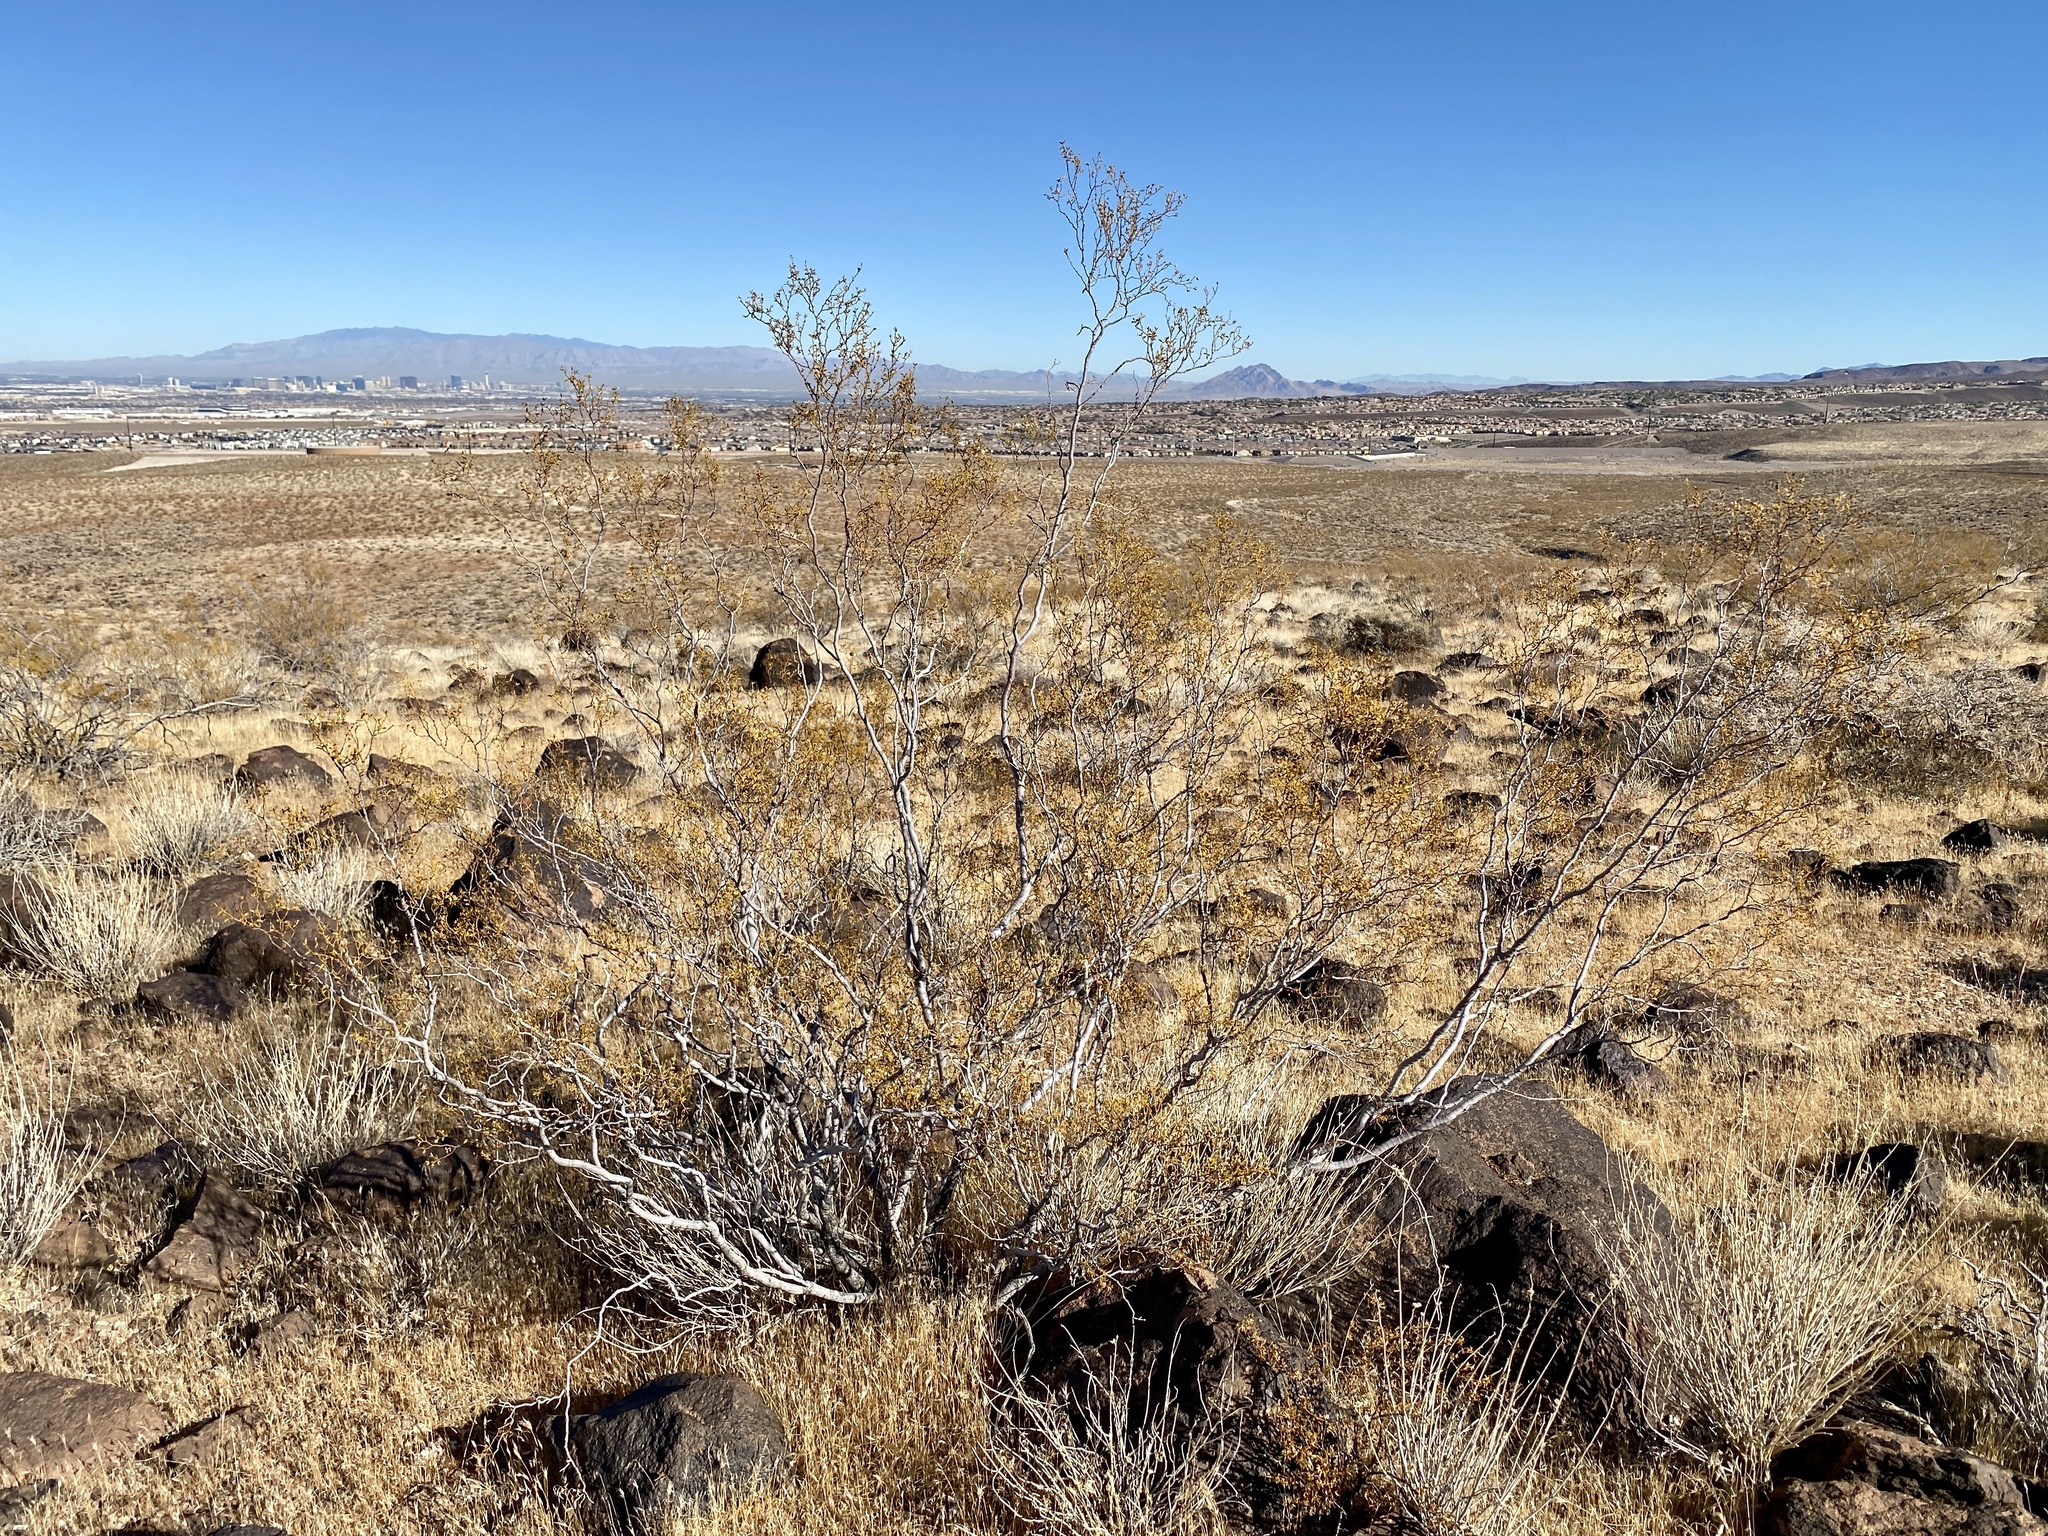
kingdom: Plantae
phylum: Tracheophyta
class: Magnoliopsida
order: Zygophyllales
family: Zygophyllaceae
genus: Larrea
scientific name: Larrea tridentata
